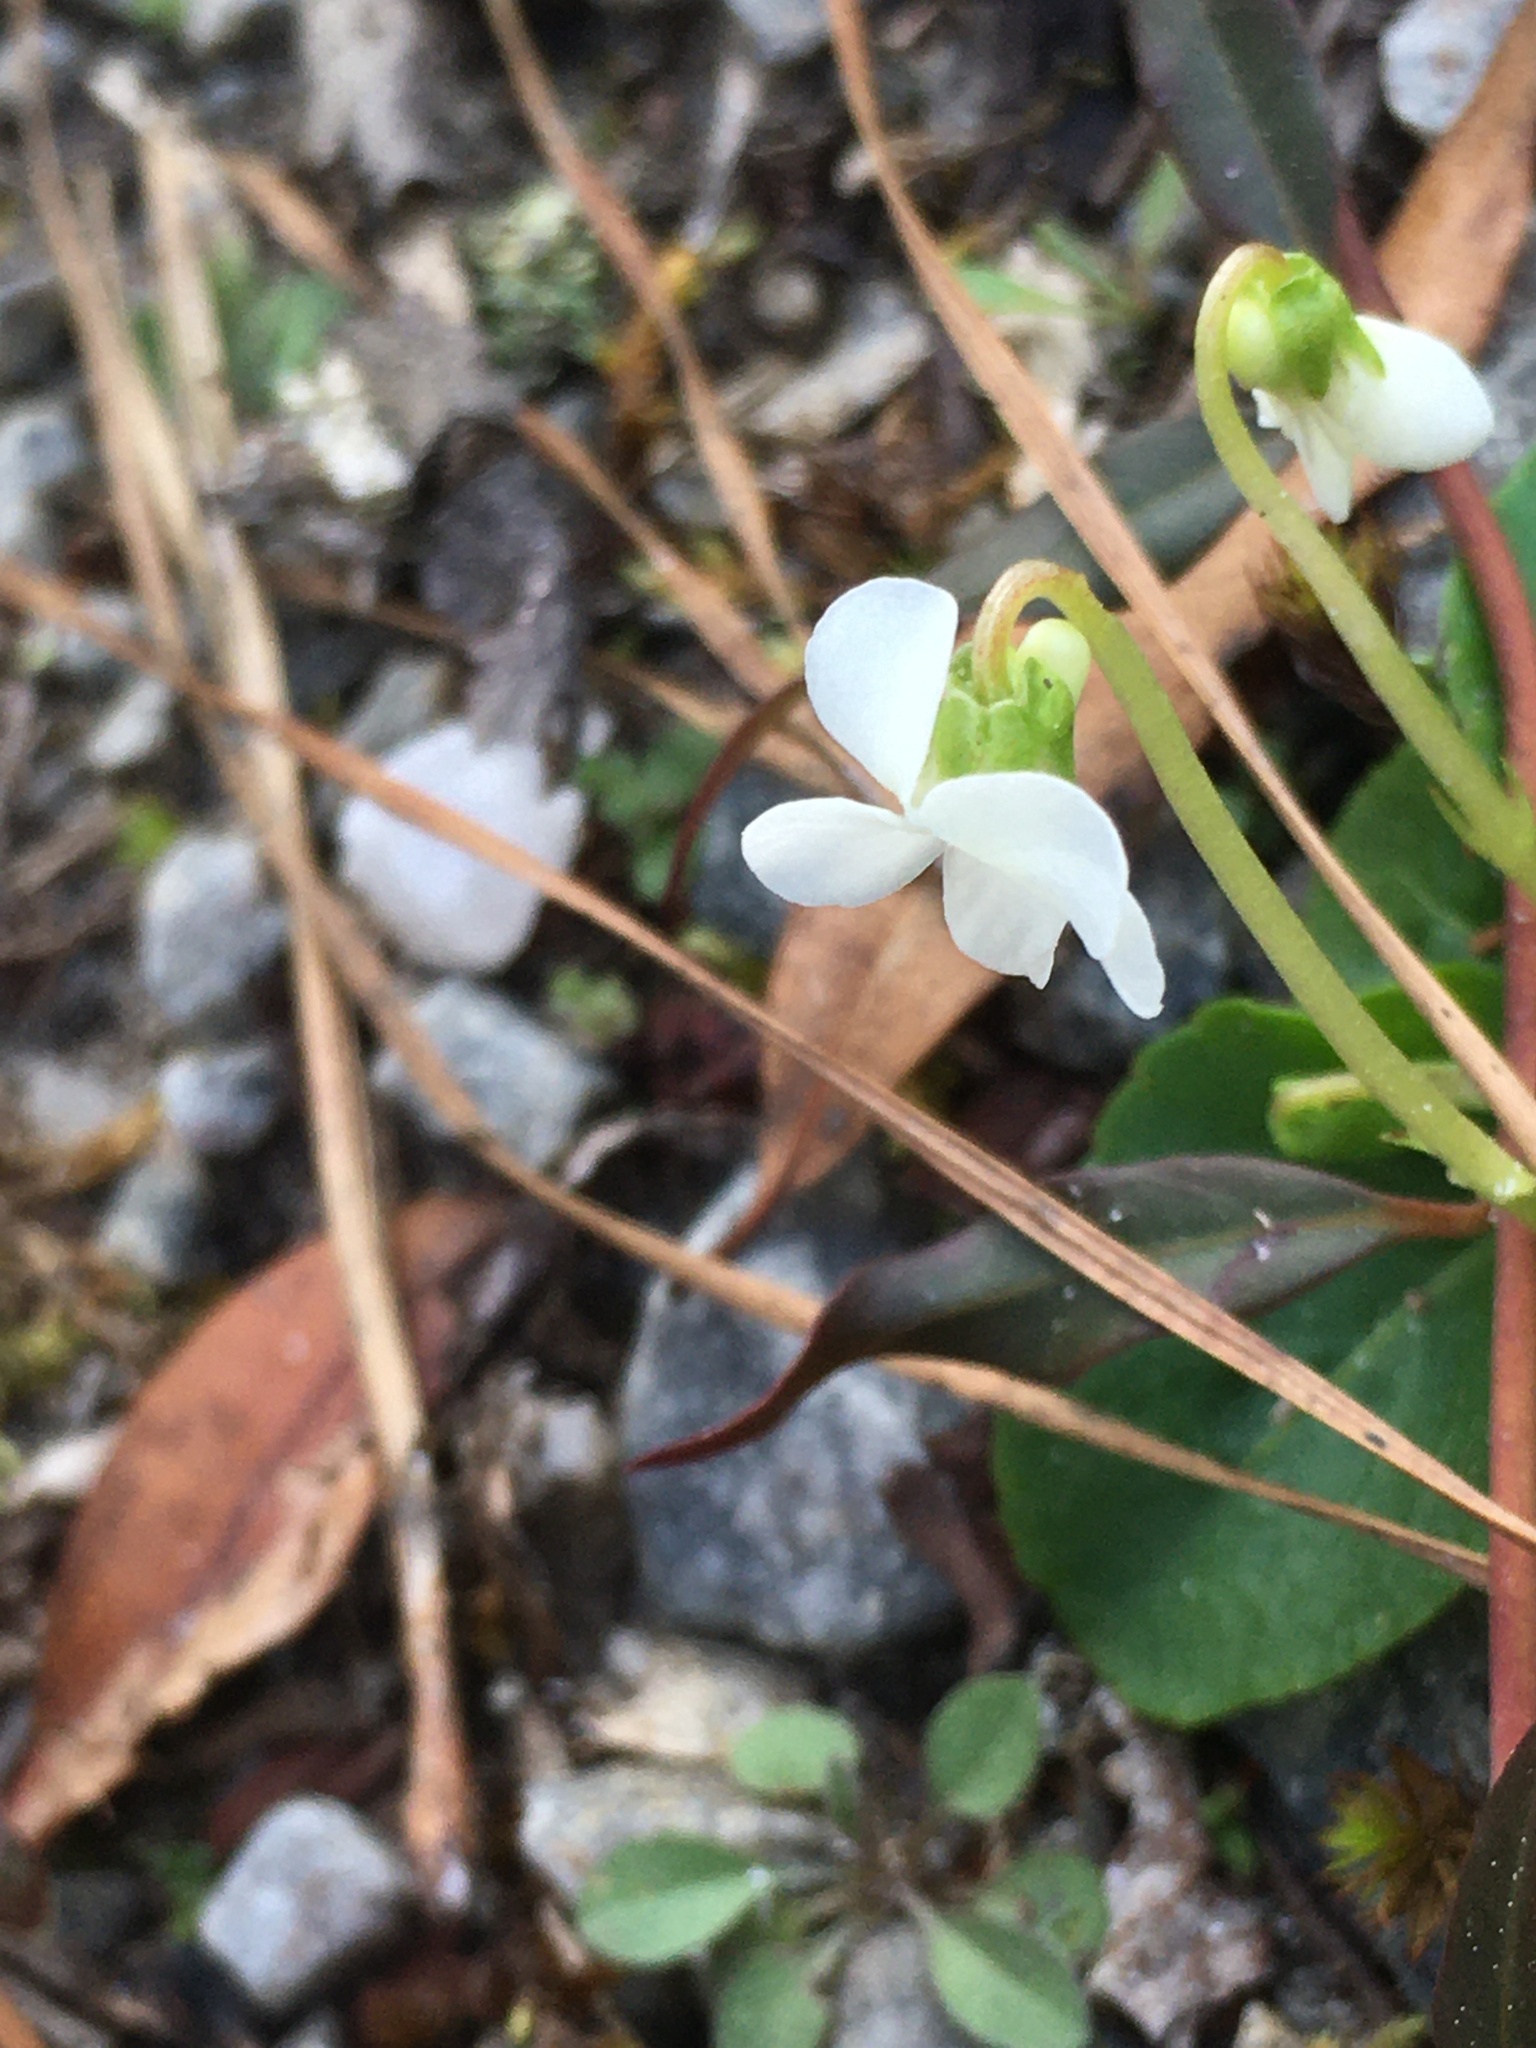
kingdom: Plantae
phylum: Tracheophyta
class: Magnoliopsida
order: Malpighiales
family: Violaceae
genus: Viola
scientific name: Viola primulifolia
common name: Primrose-leaf violet
